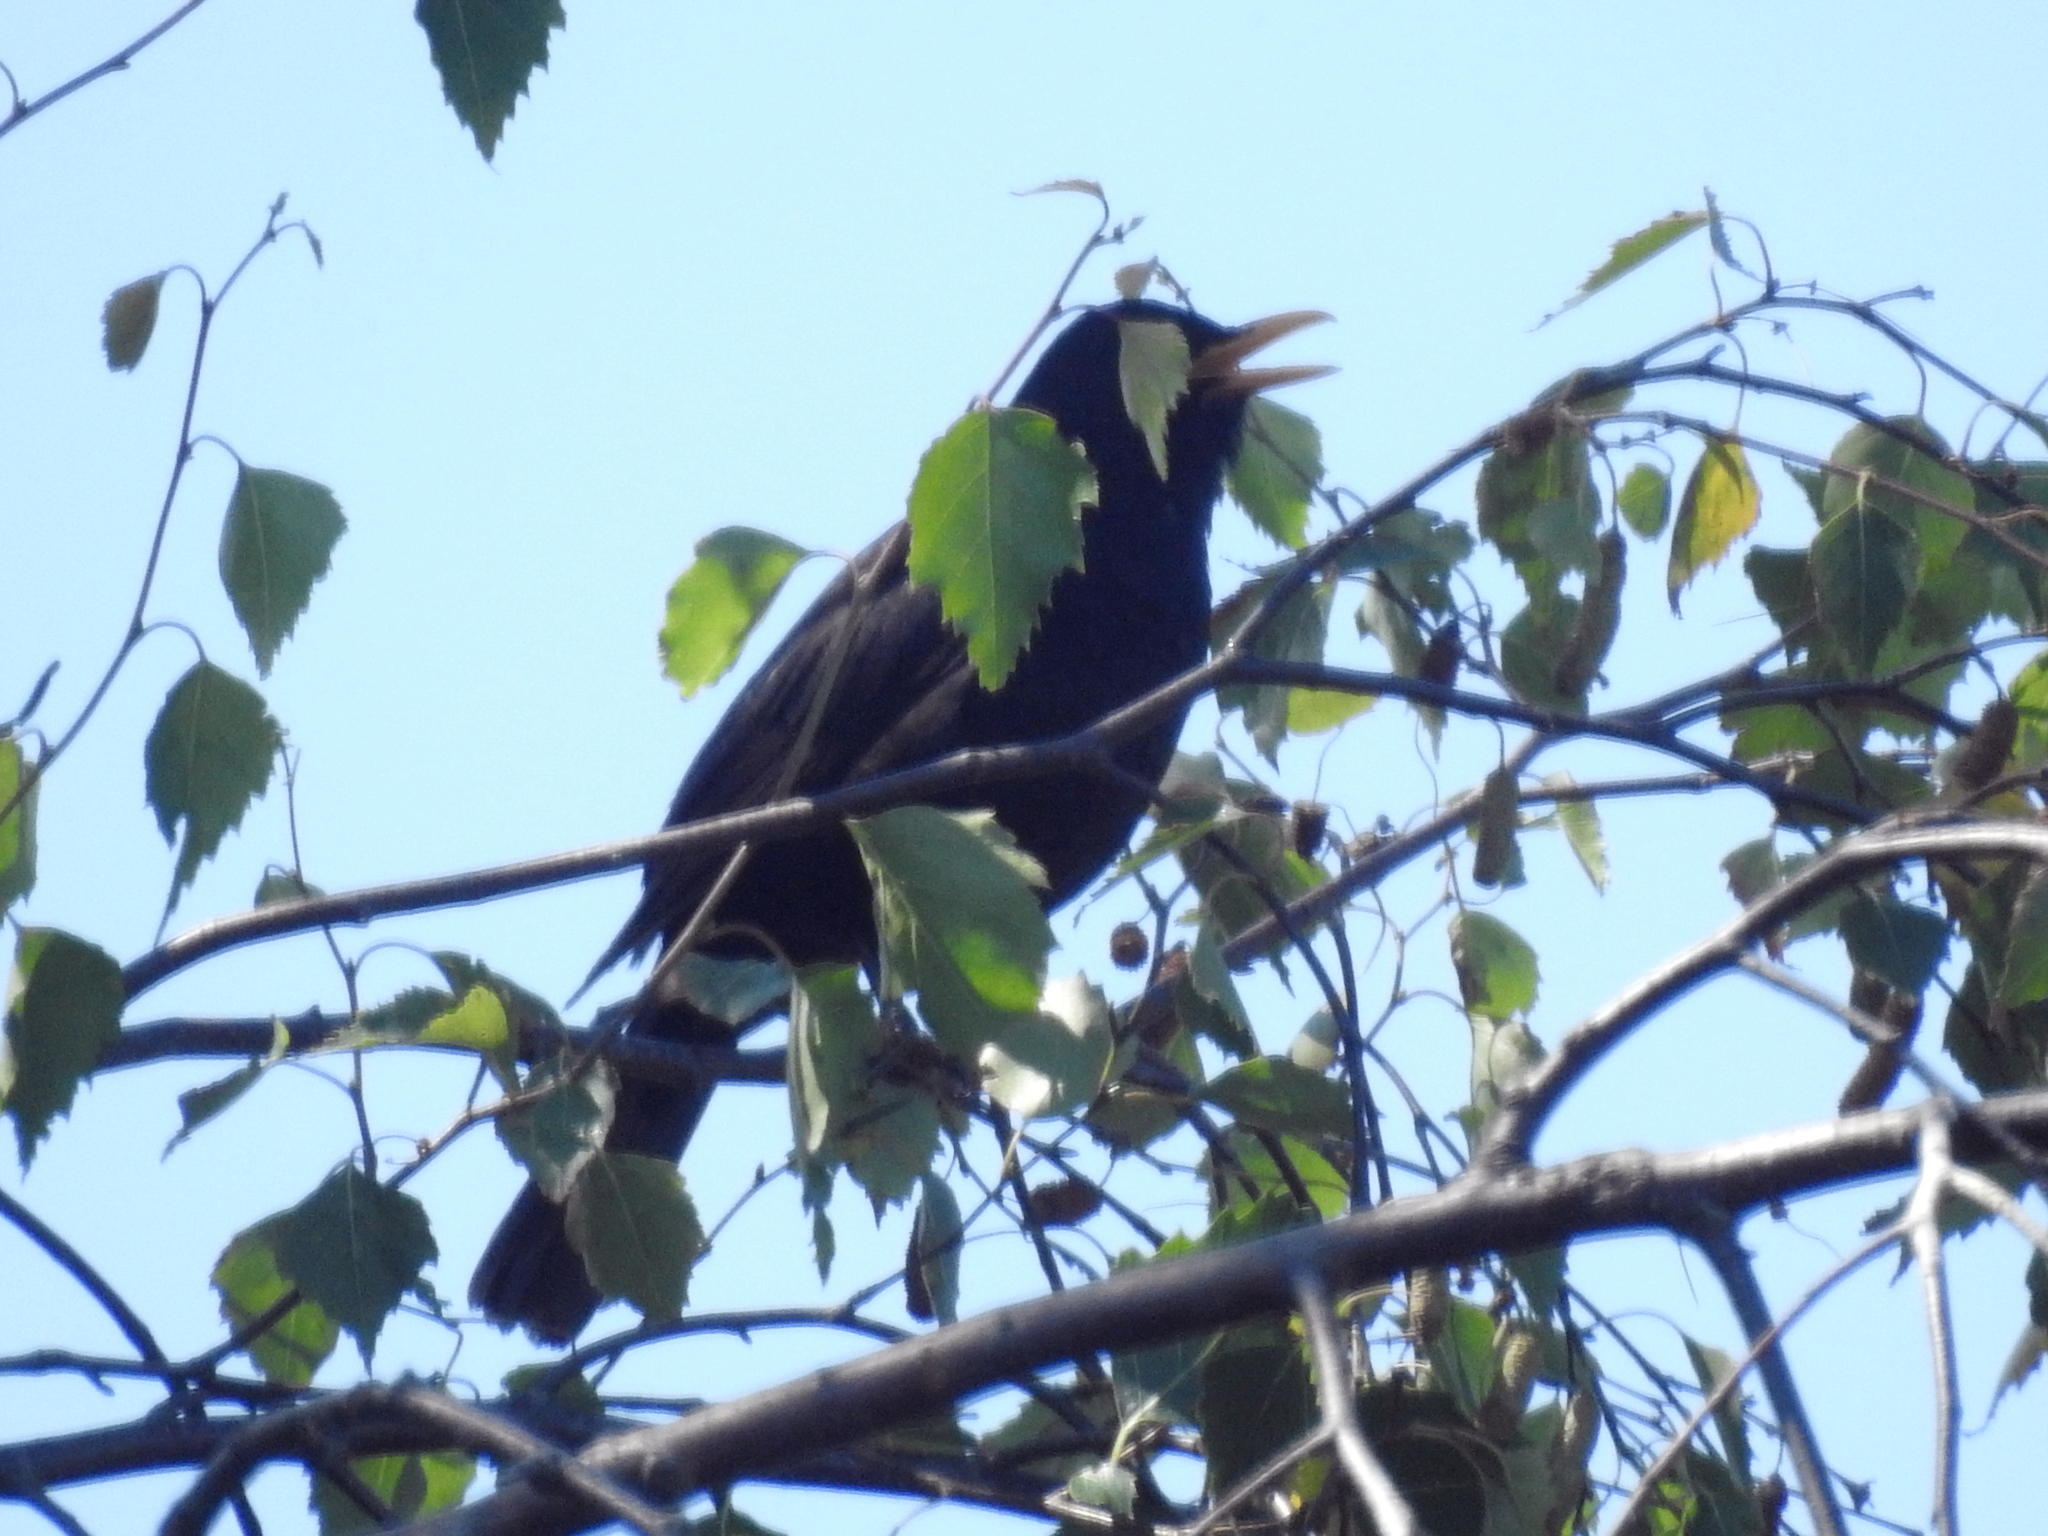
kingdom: Animalia
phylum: Chordata
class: Aves
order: Passeriformes
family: Turdidae
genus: Turdus
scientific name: Turdus merula
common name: Common blackbird
